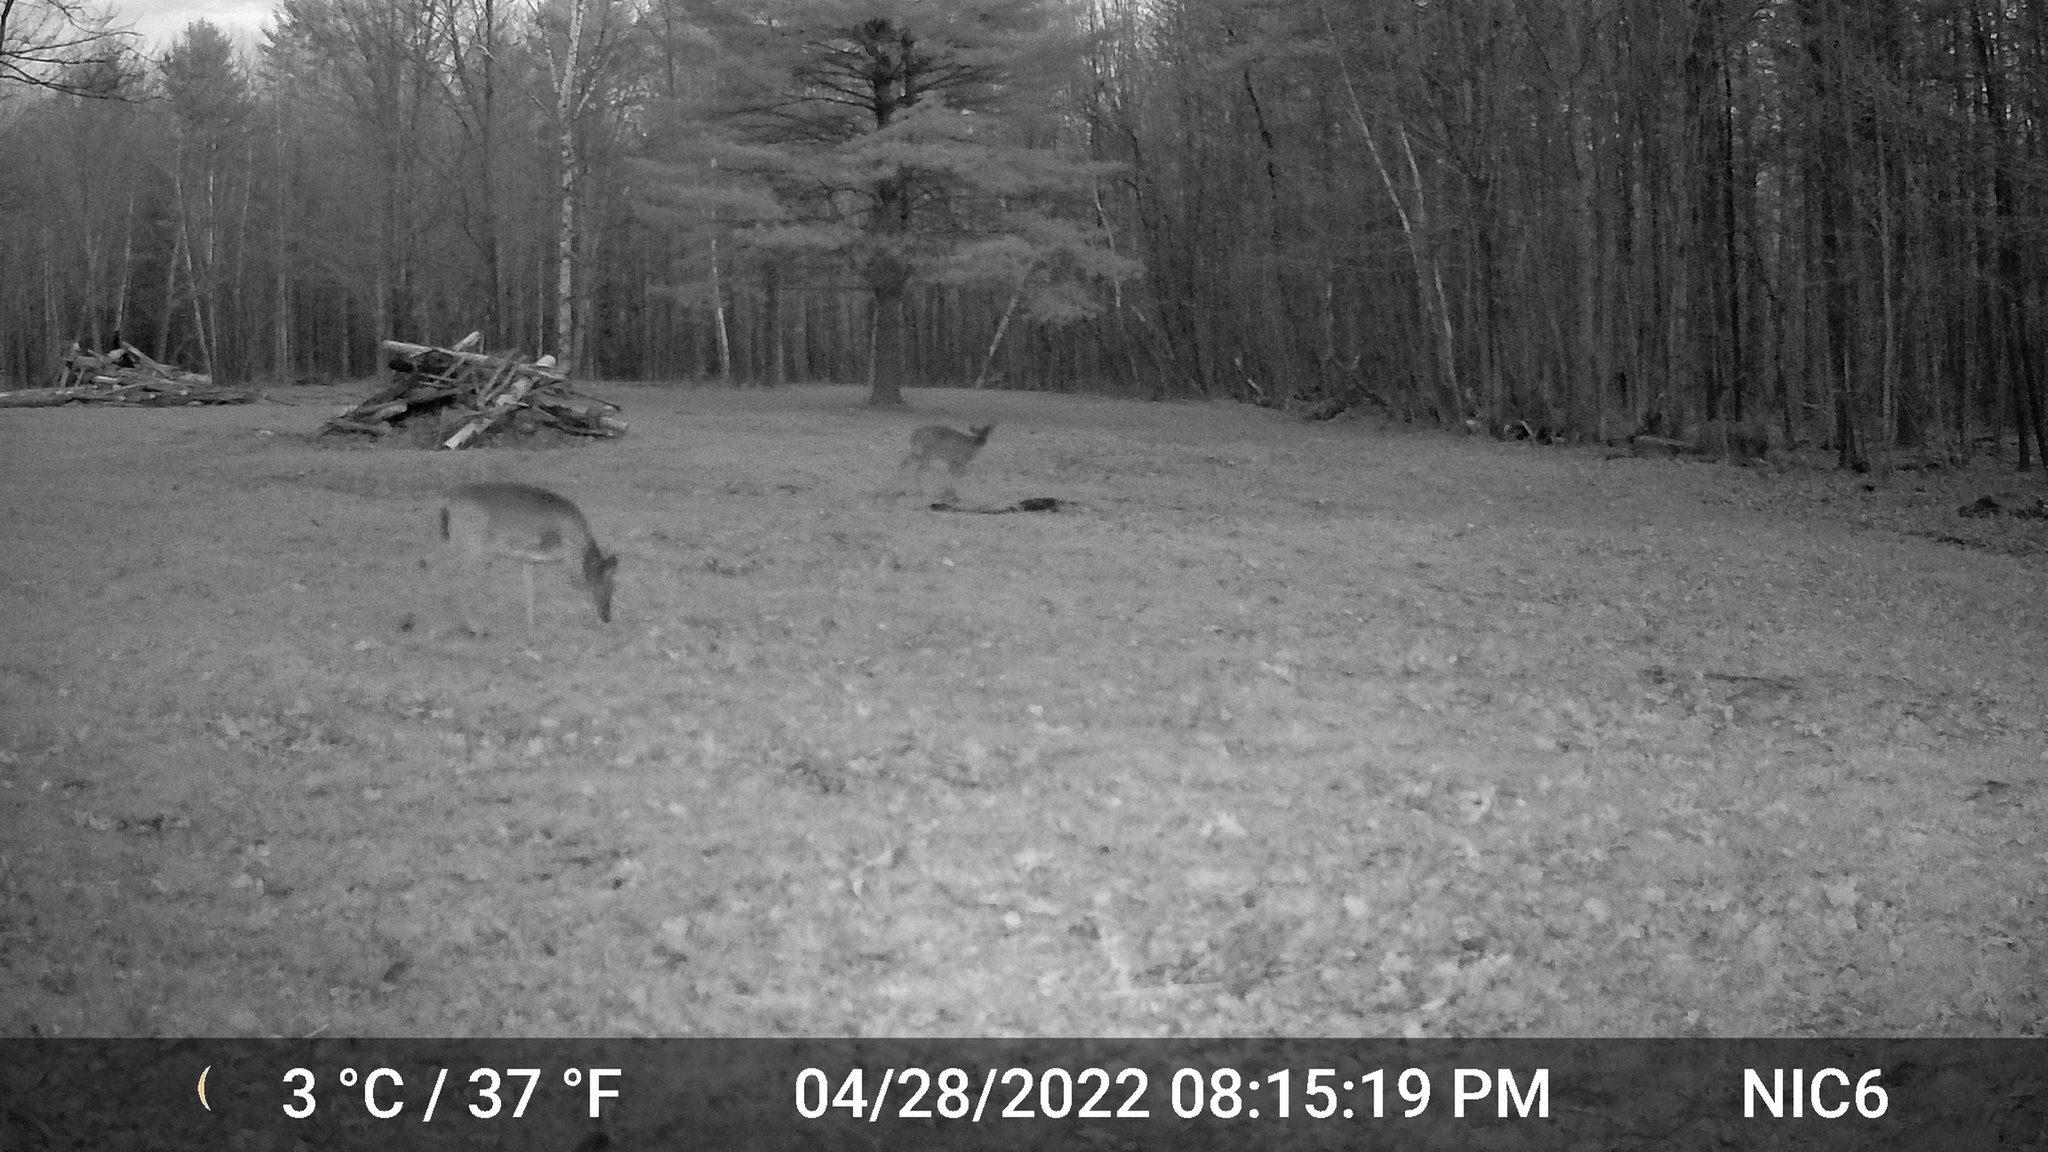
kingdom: Animalia
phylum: Chordata
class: Mammalia
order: Artiodactyla
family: Cervidae
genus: Odocoileus
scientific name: Odocoileus virginianus
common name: White-tailed deer
